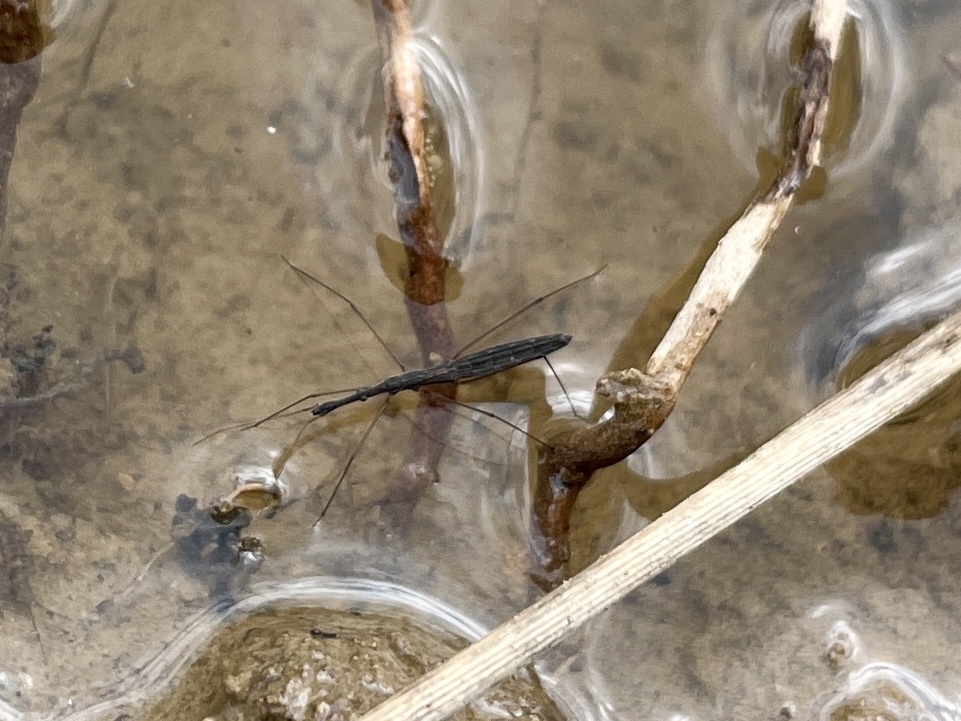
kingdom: Animalia
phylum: Arthropoda
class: Insecta
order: Hemiptera
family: Hydrometridae
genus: Hydrometra
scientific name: Hydrometra stagnorum
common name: Water measurer
